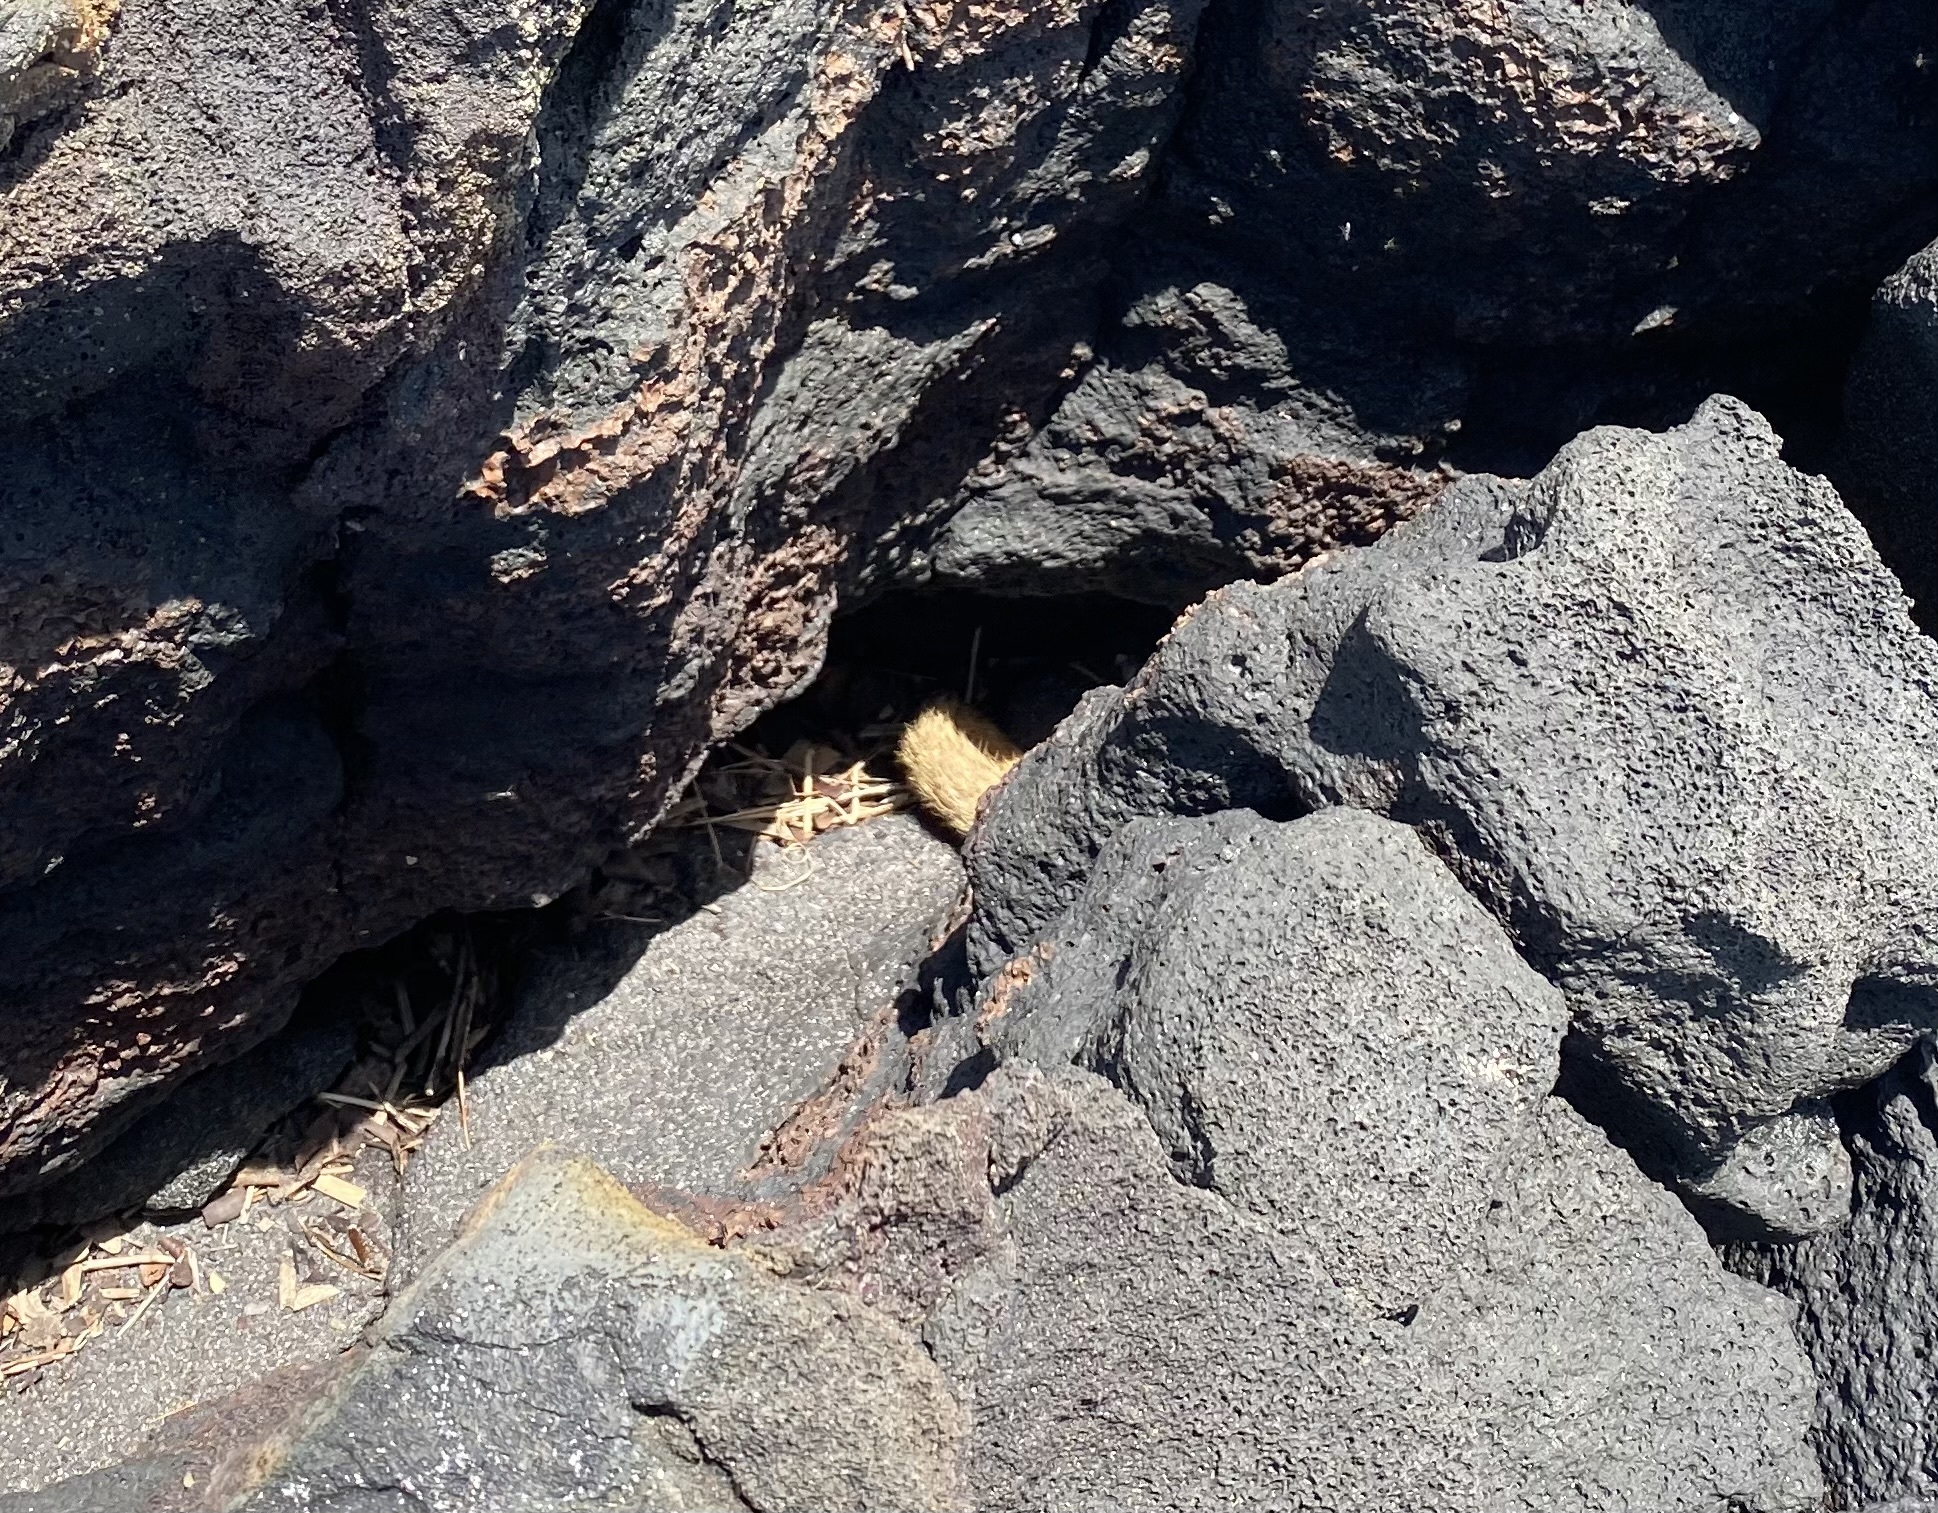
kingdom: Animalia
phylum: Chordata
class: Mammalia
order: Carnivora
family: Herpestidae
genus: Herpestes
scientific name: Herpestes javanicus
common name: Small asian mongoose
